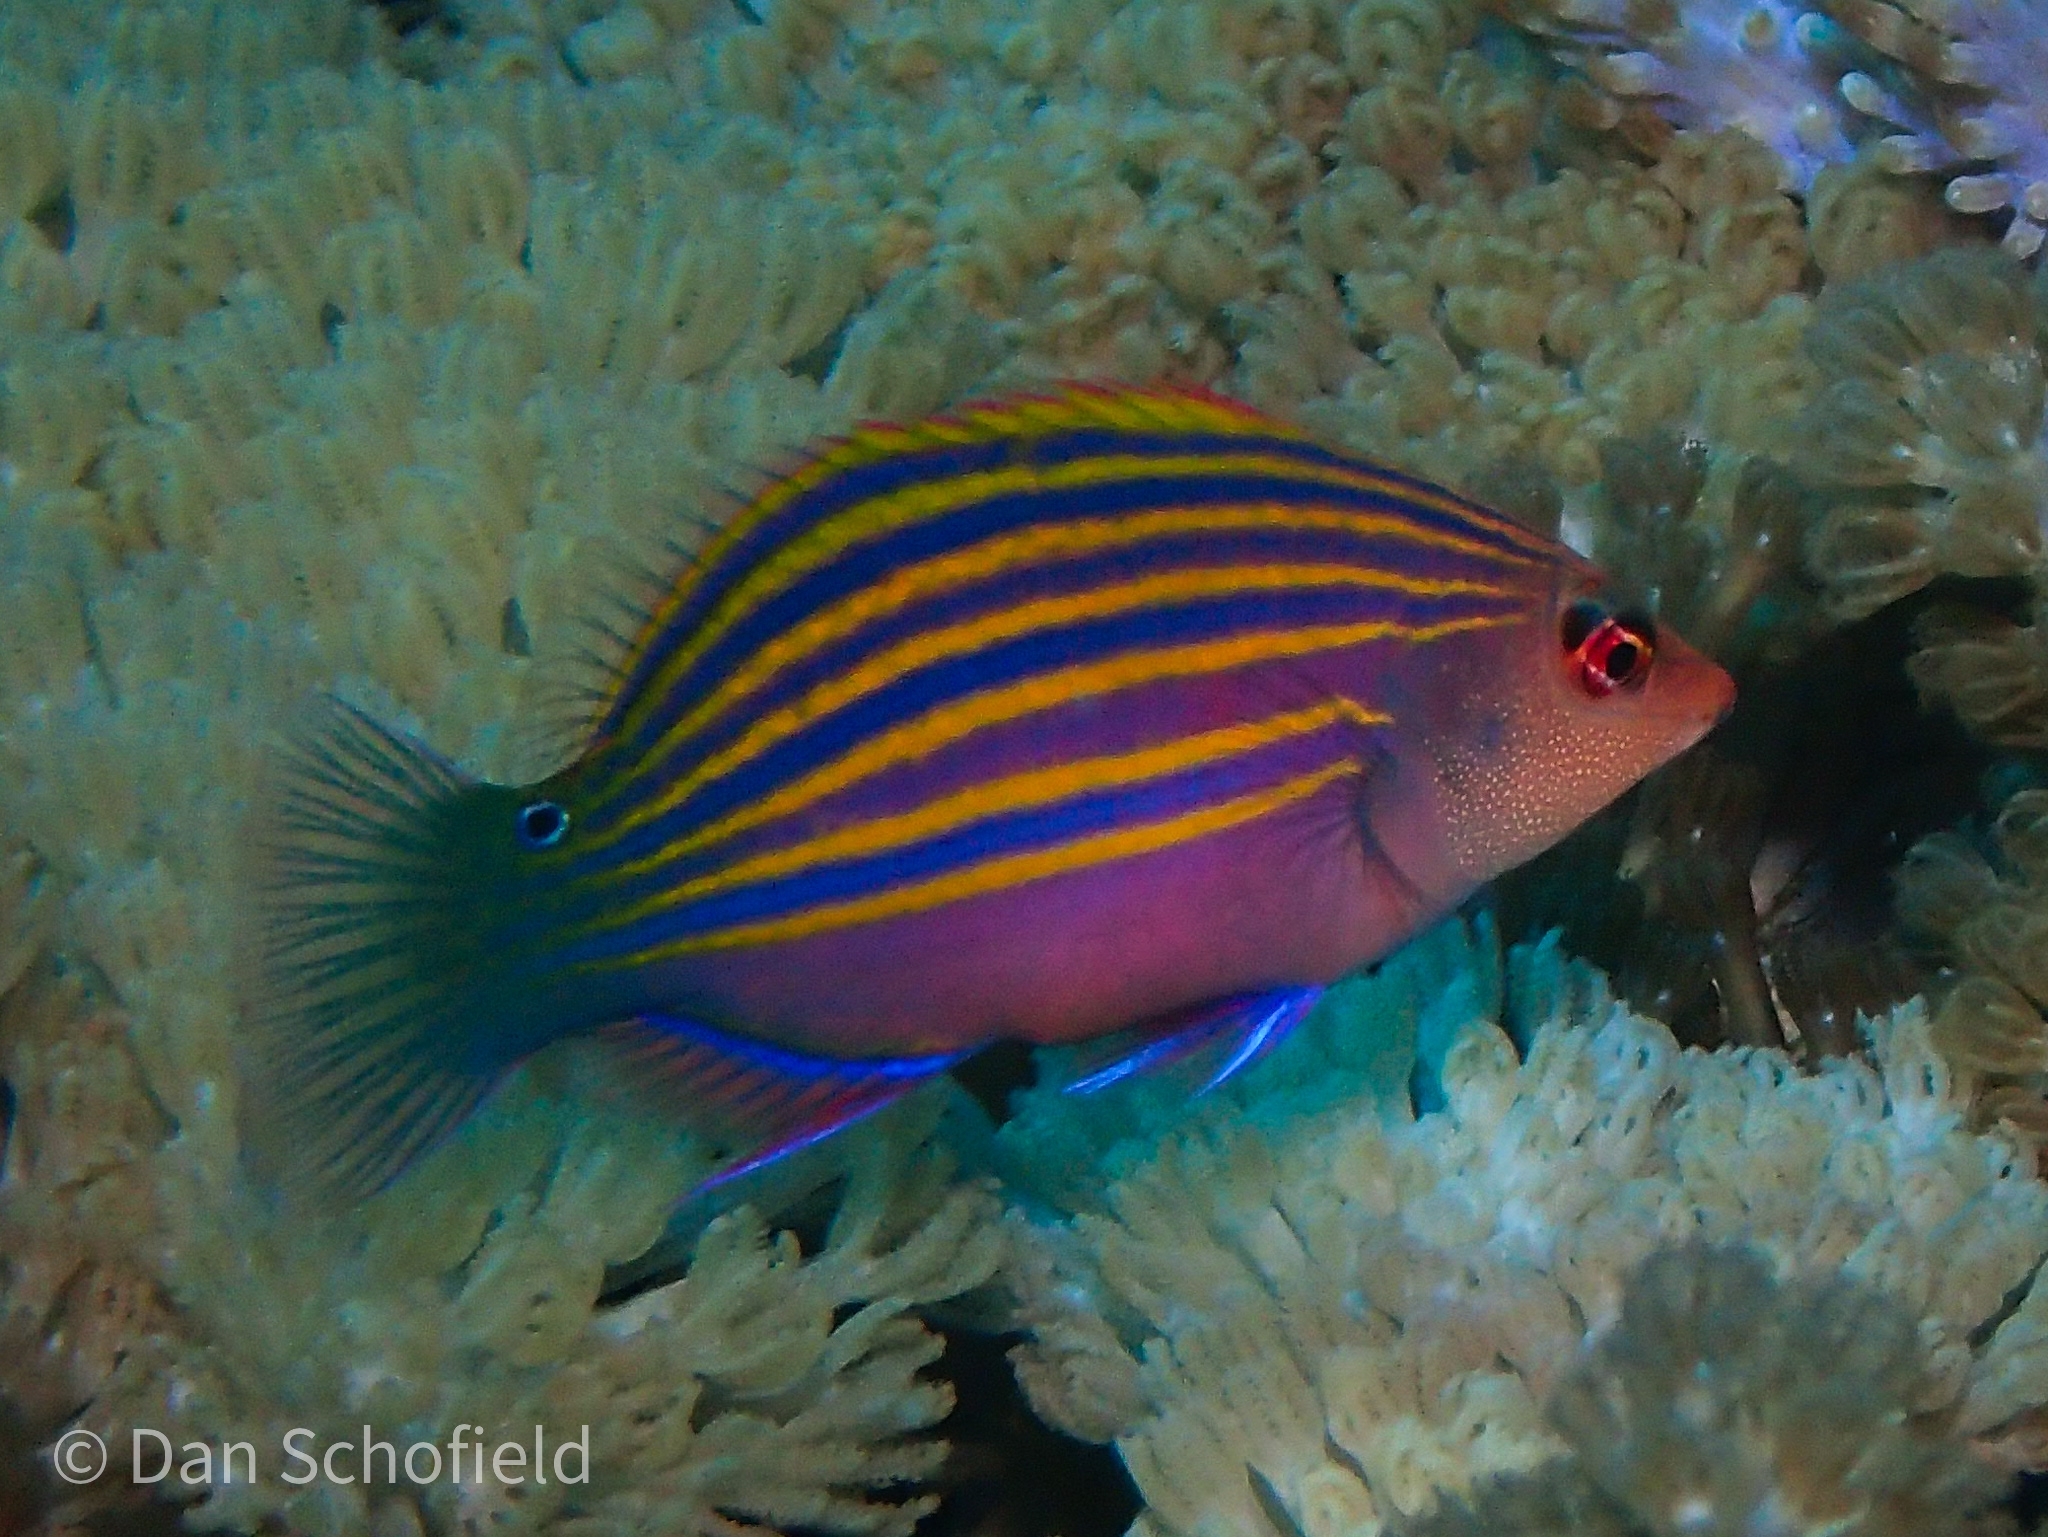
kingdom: Animalia
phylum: Chordata
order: Perciformes
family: Labridae
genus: Pseudocheilinus
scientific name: Pseudocheilinus hexataenia
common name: Sixline wrasse
